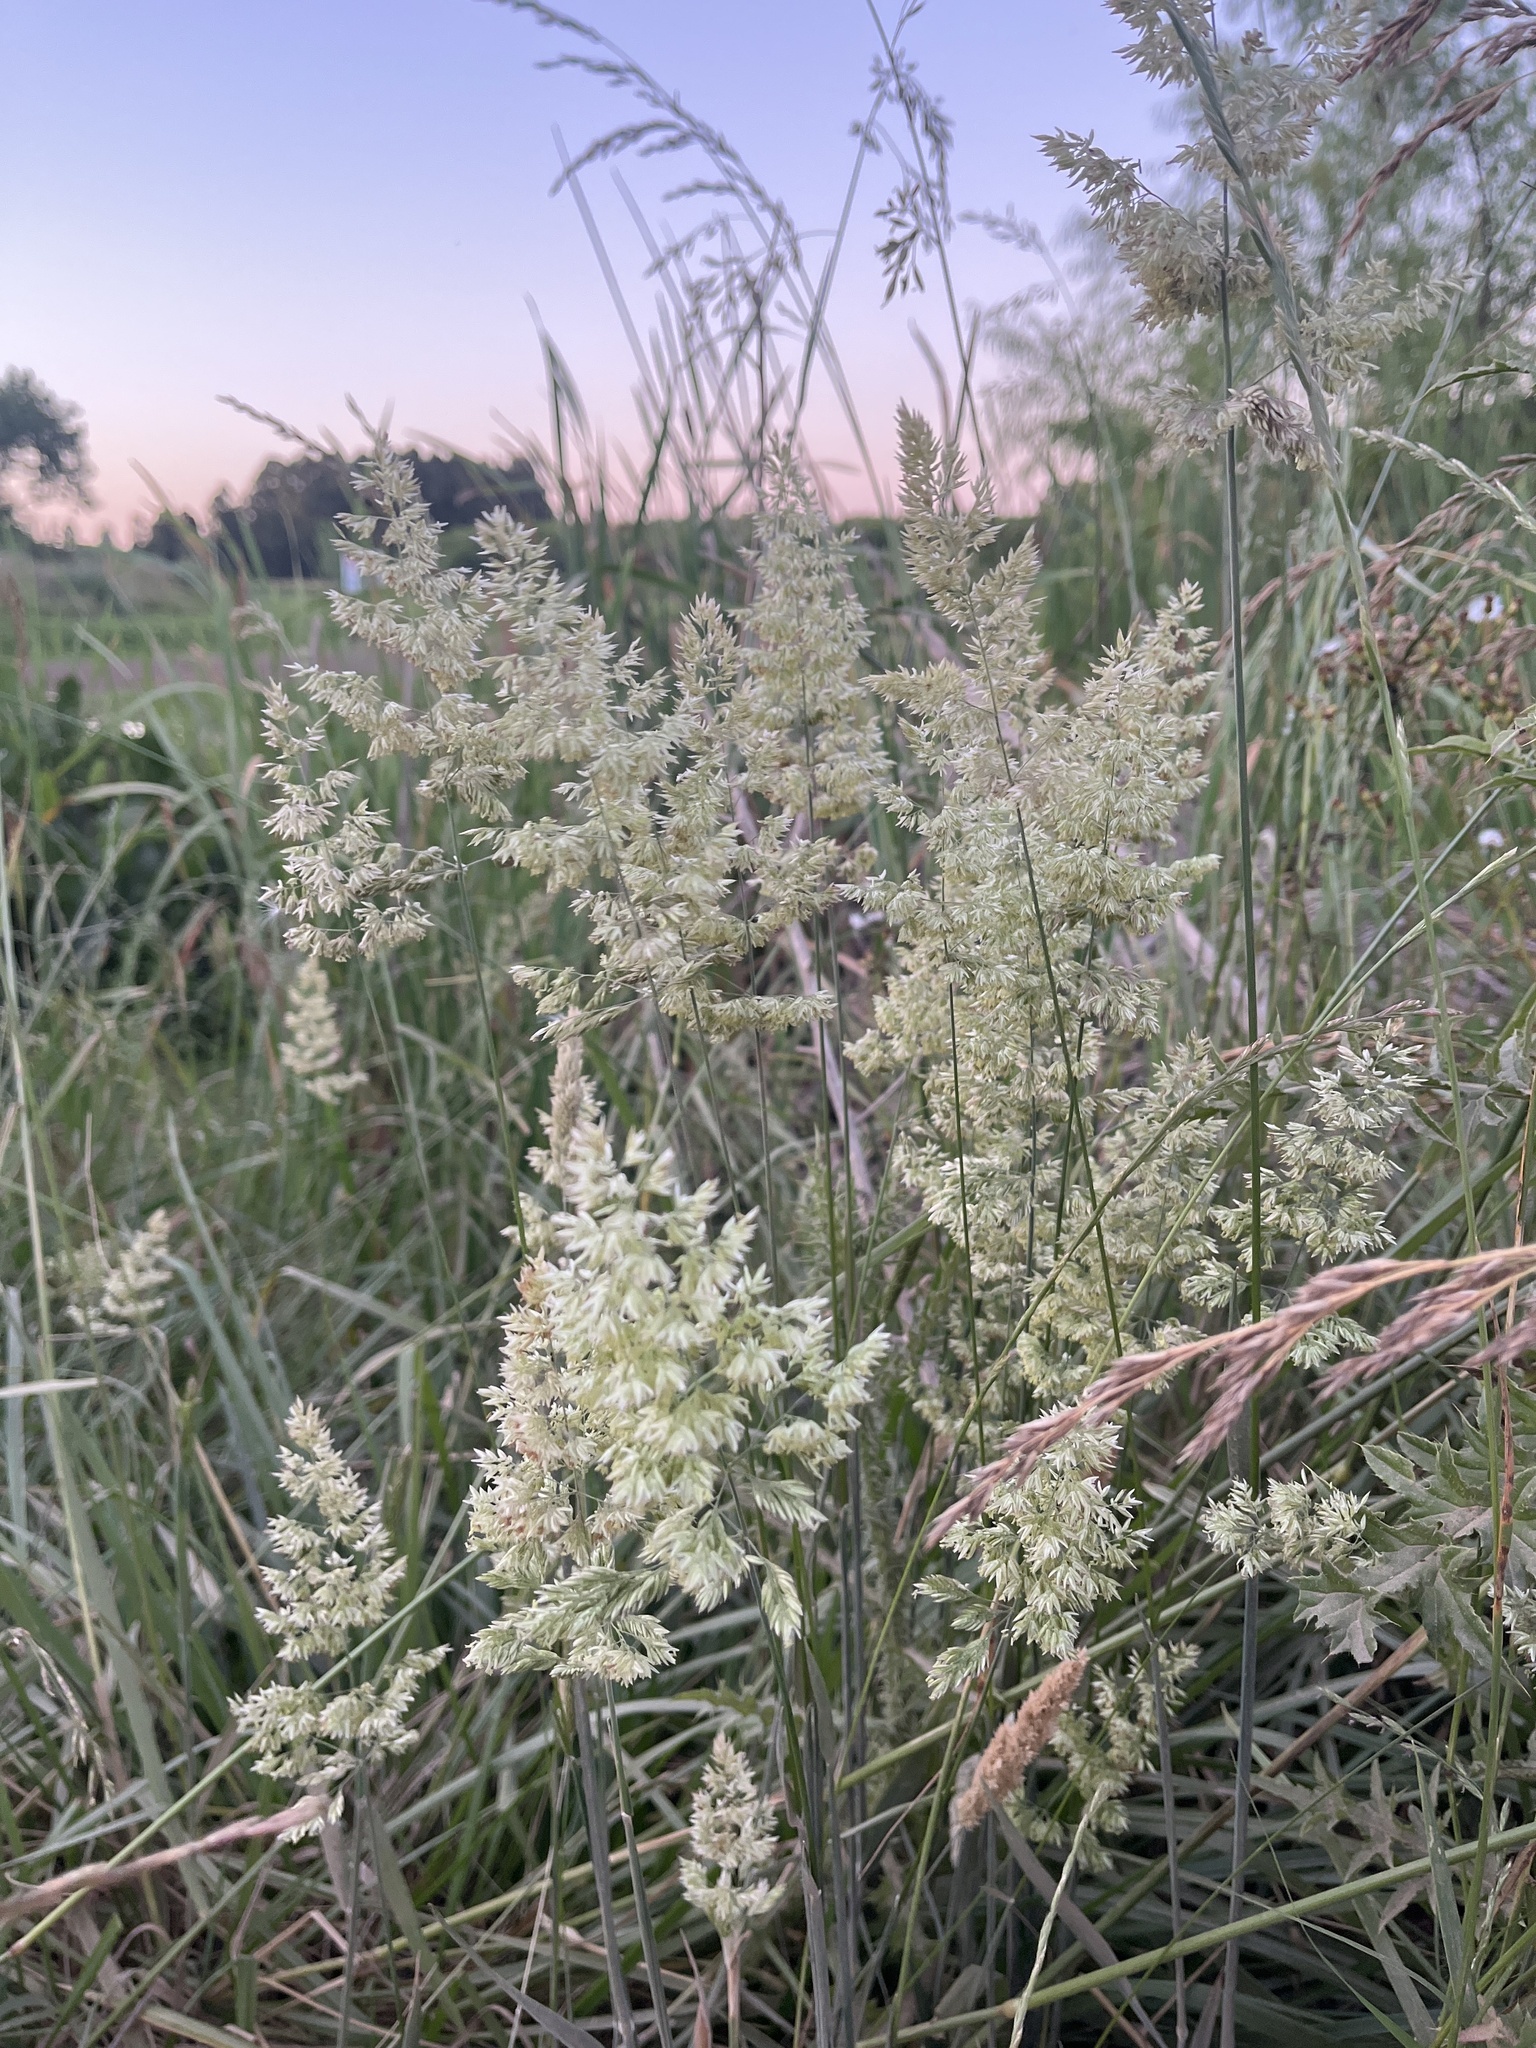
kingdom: Plantae
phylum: Tracheophyta
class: Liliopsida
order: Poales
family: Poaceae
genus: Holcus
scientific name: Holcus lanatus
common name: Yorkshire-fog
